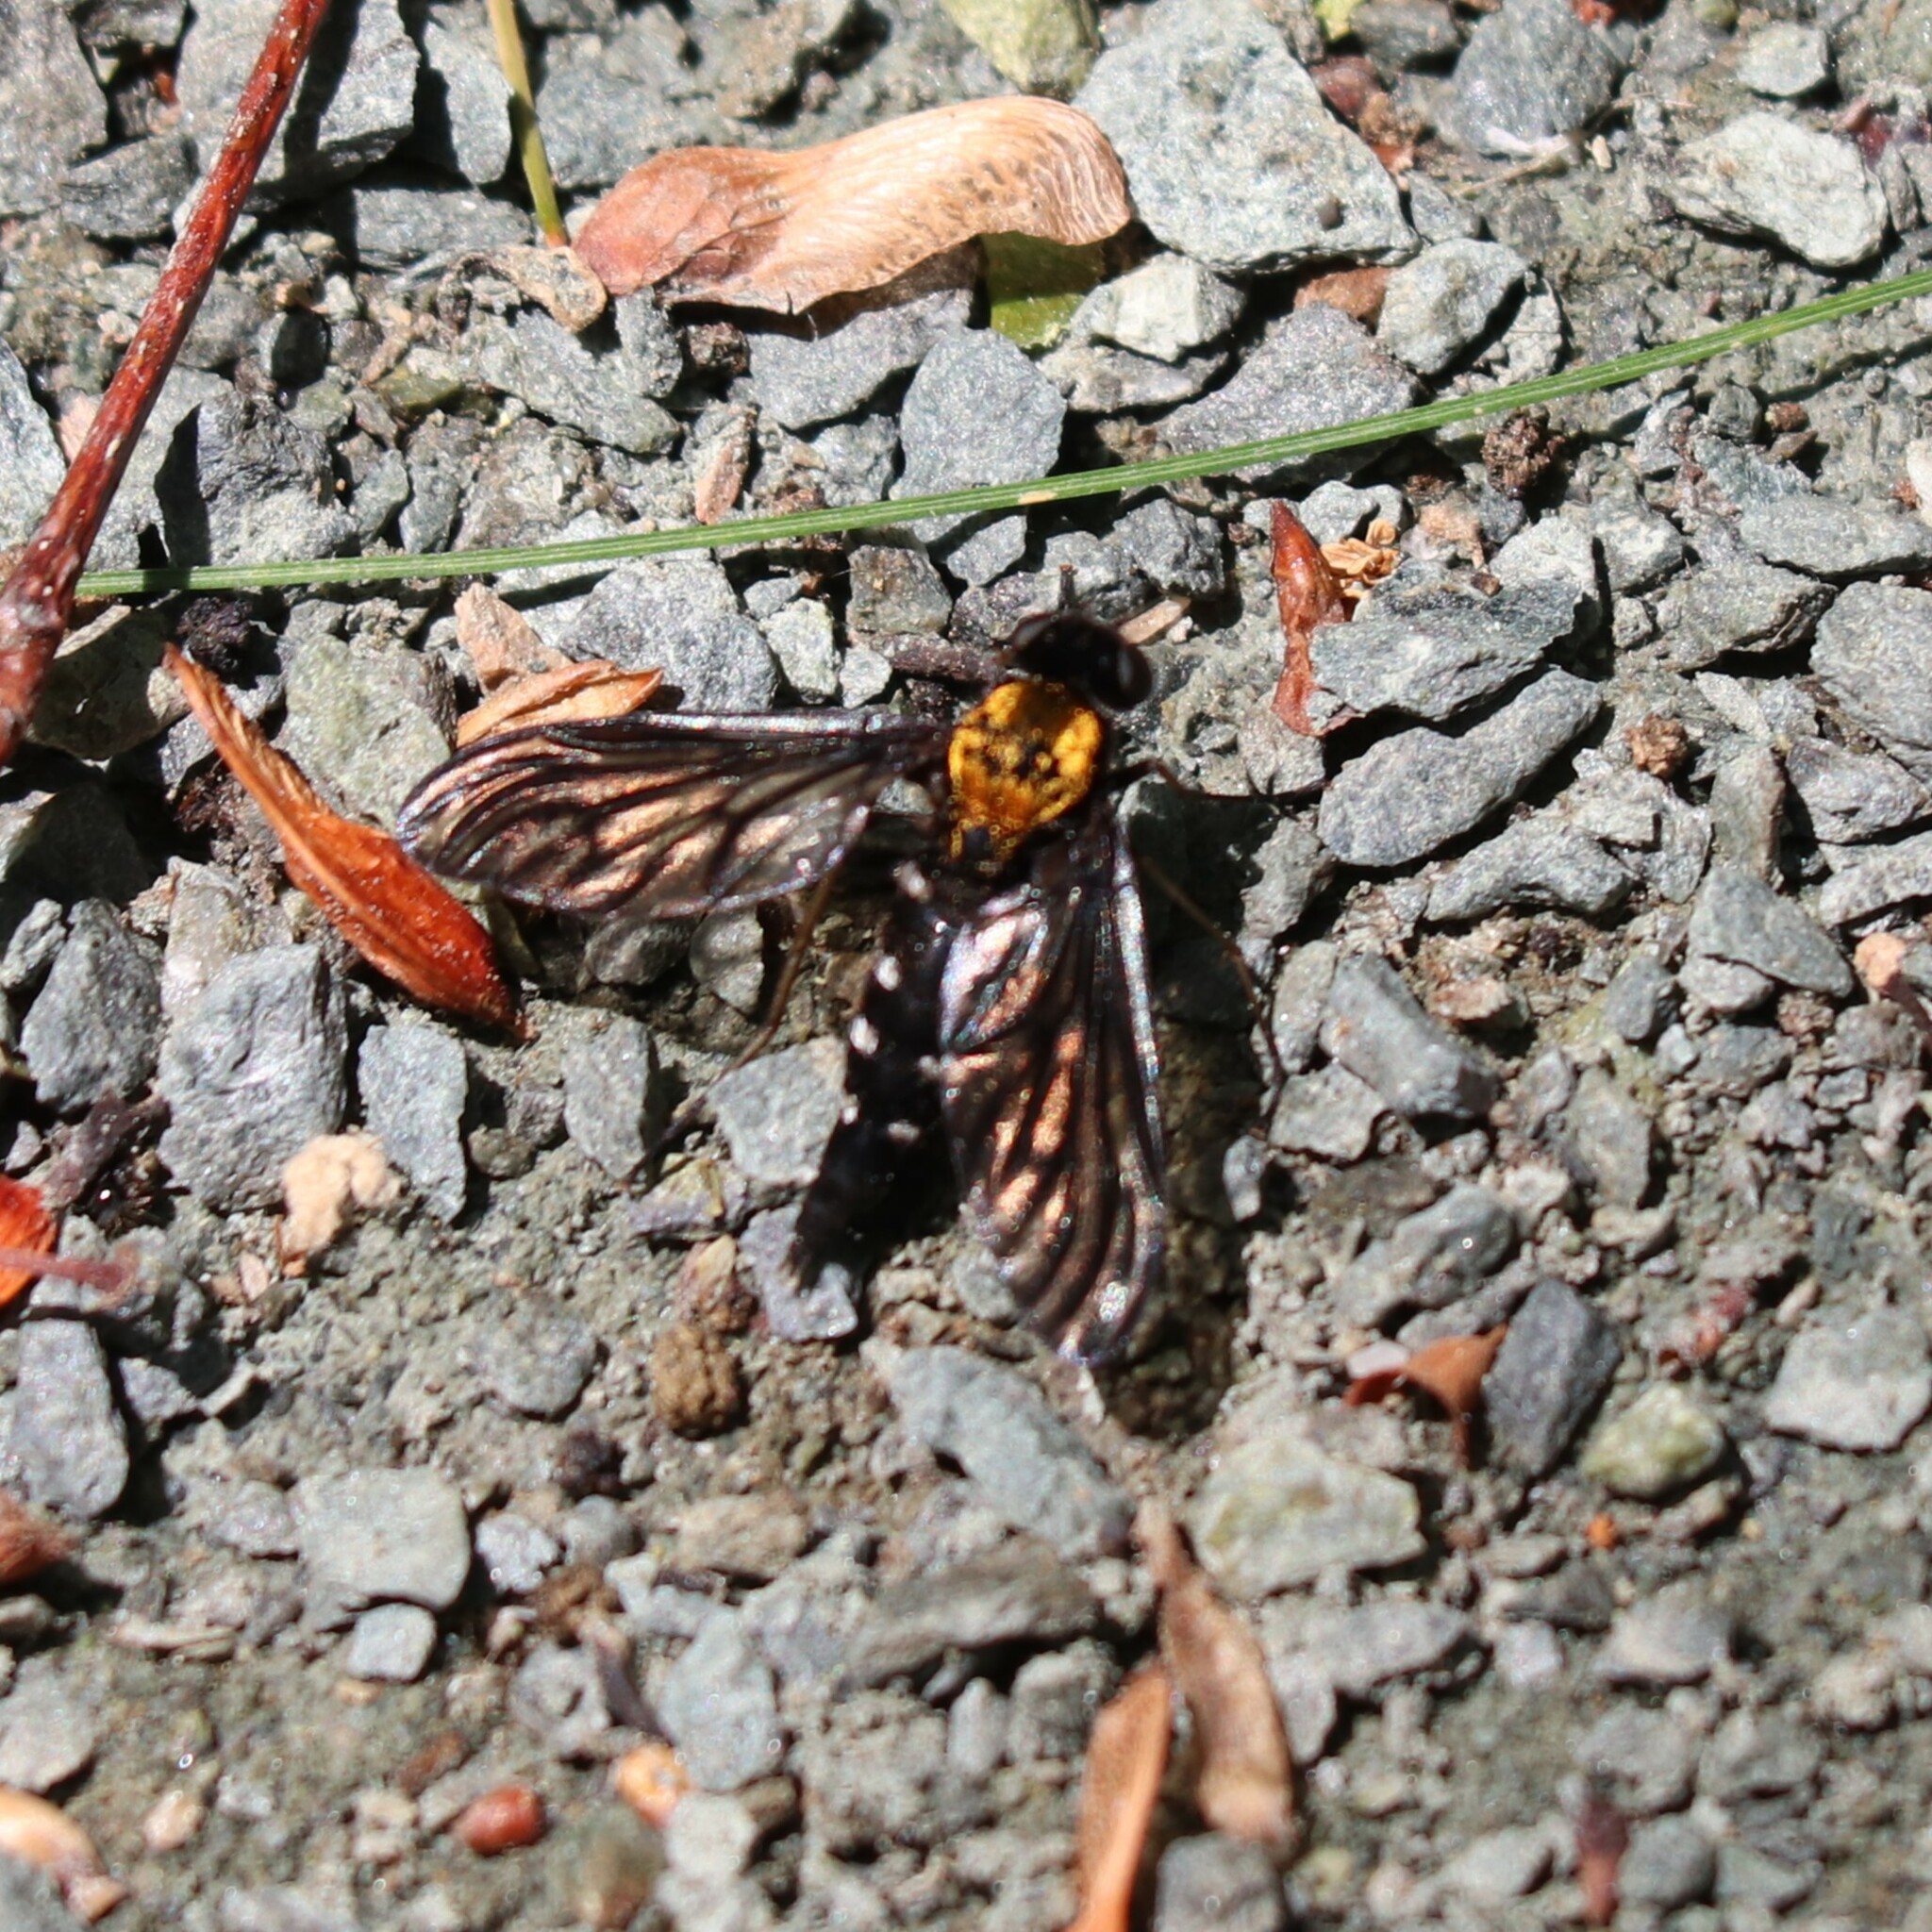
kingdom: Animalia
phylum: Arthropoda
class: Insecta
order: Diptera
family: Rhagionidae
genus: Chrysopilus
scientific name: Chrysopilus thoracicus
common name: Golden-backed snipe fly
